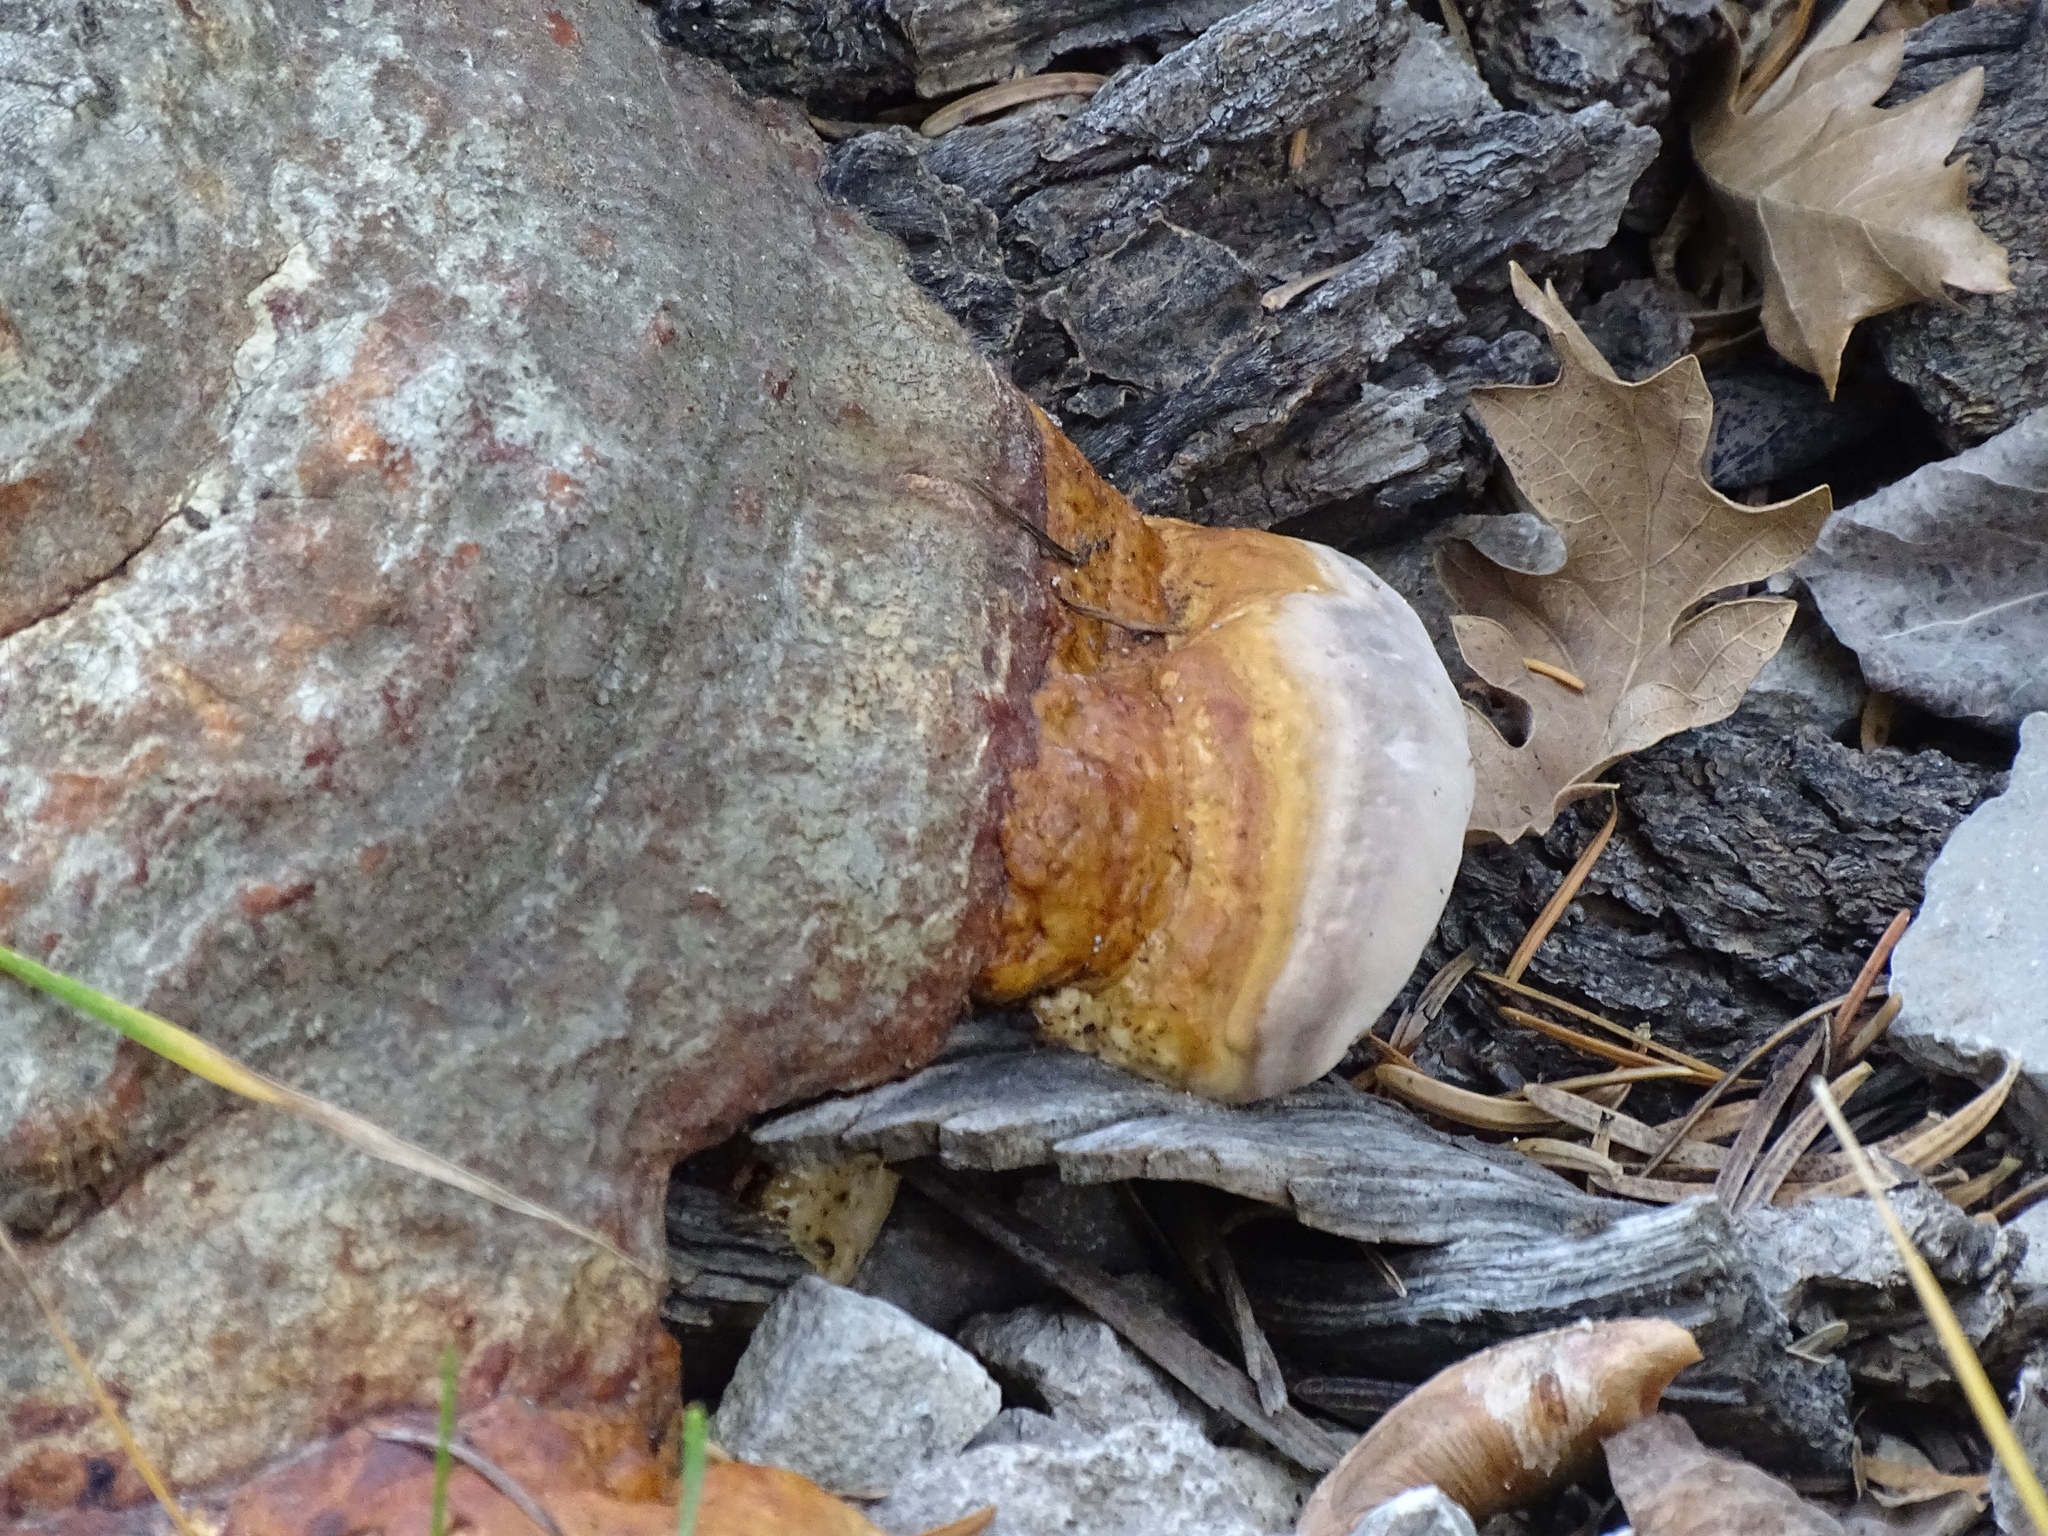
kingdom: Fungi
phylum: Basidiomycota
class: Agaricomycetes
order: Polyporales
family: Fomitopsidaceae
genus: Fomitopsis
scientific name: Fomitopsis schrenkii
